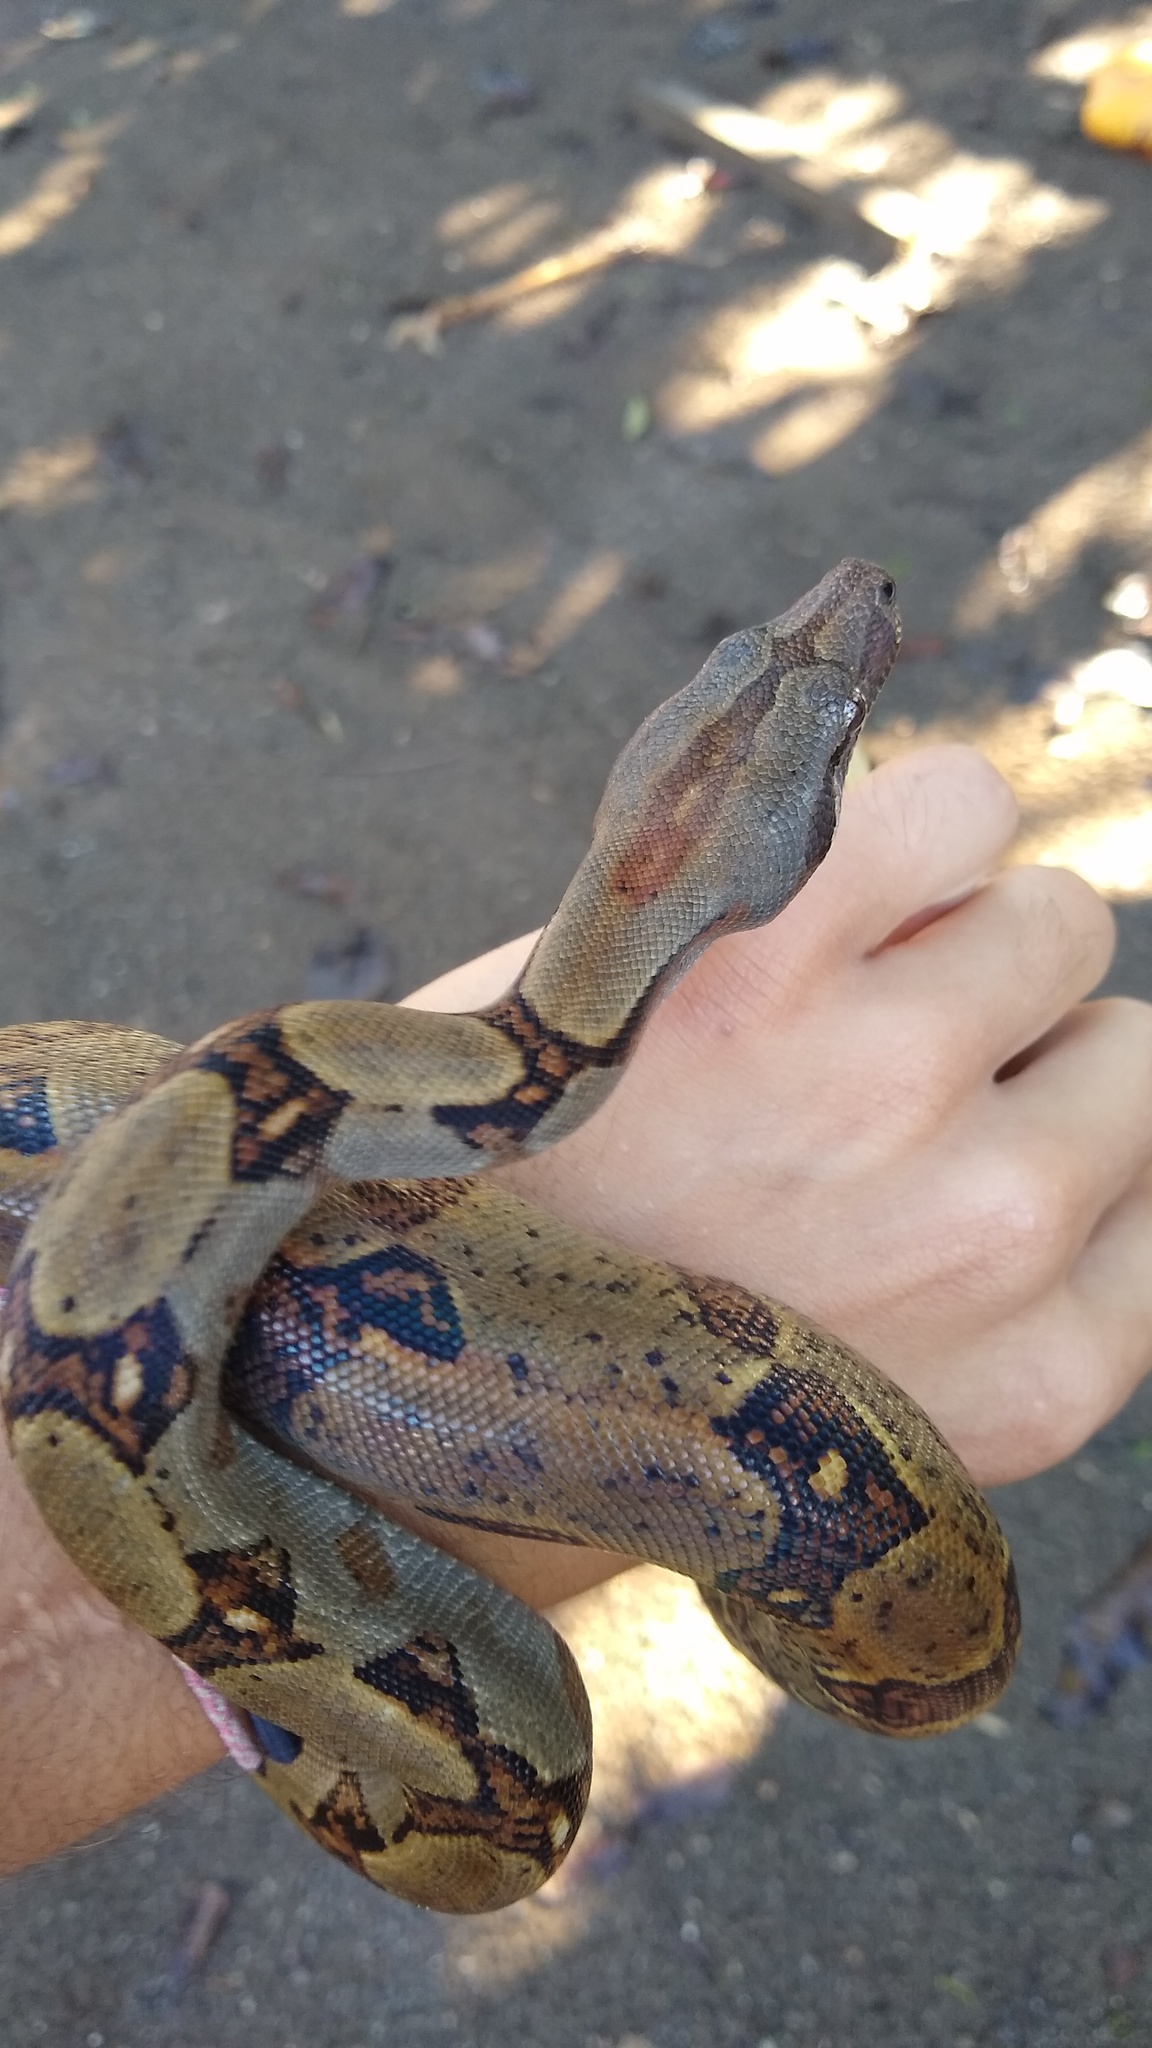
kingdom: Animalia
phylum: Chordata
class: Squamata
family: Boidae
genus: Boa
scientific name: Boa imperator
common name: Central american boa
